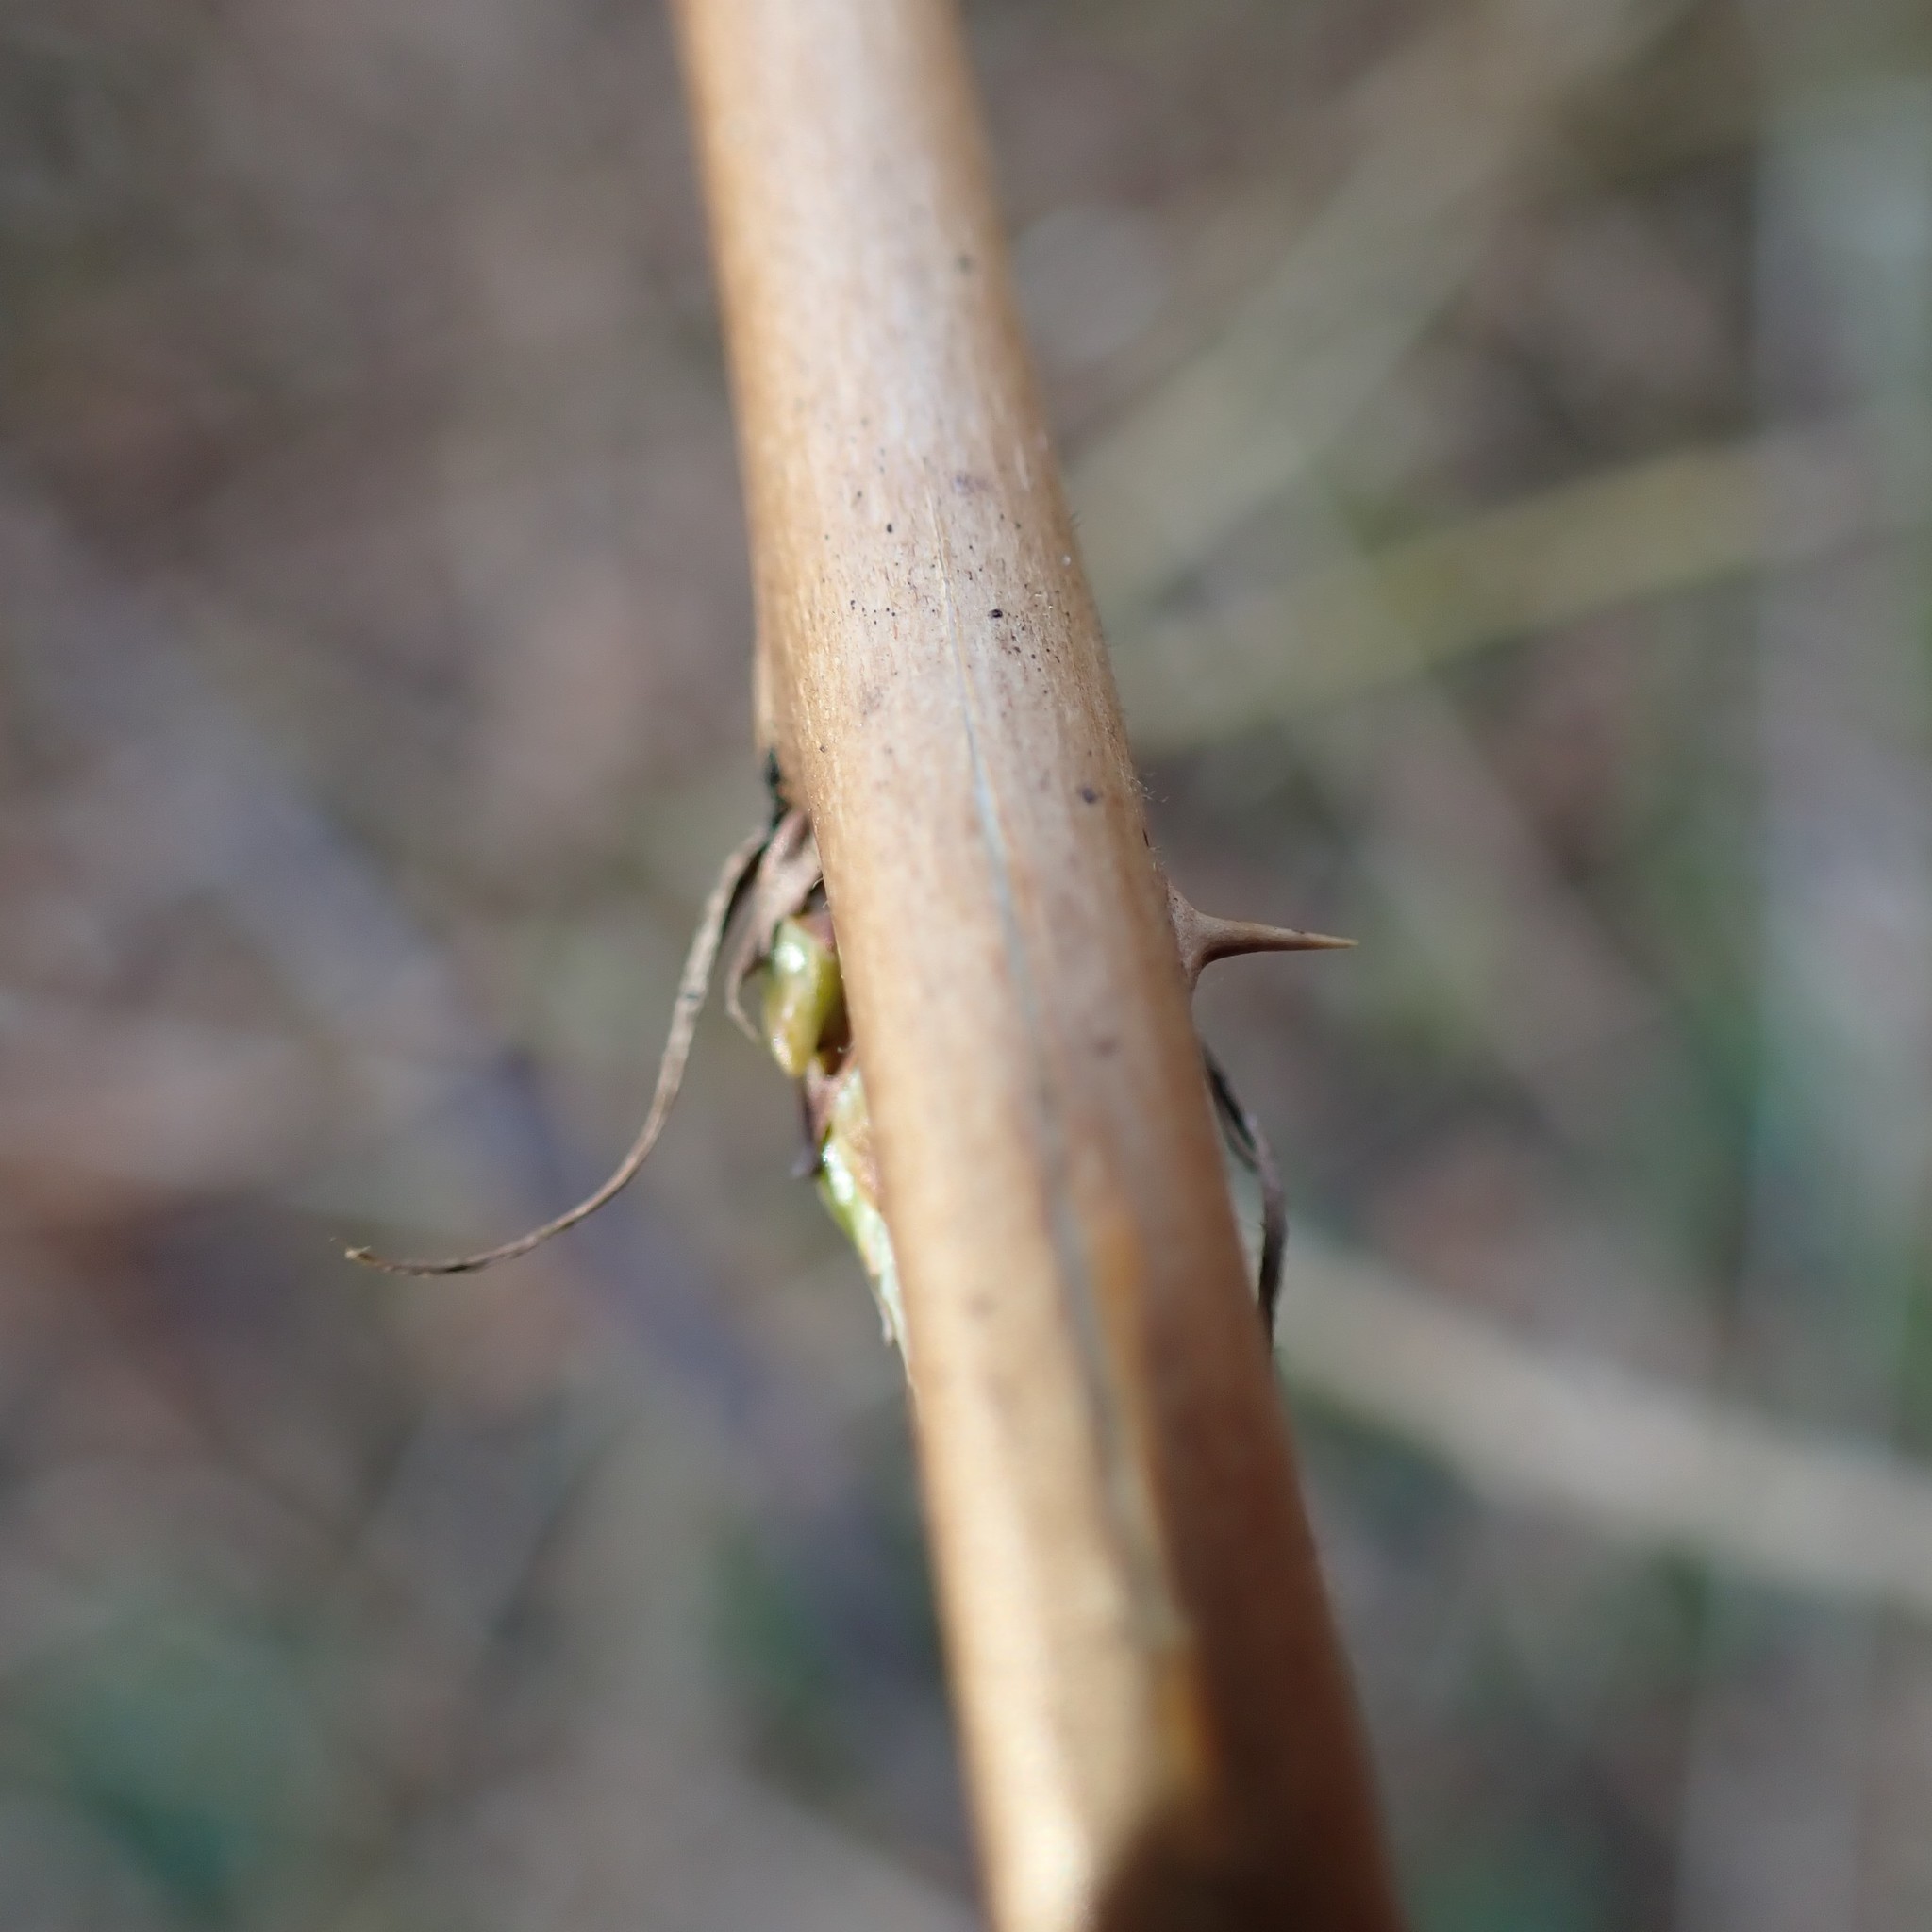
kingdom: Plantae
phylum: Tracheophyta
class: Magnoliopsida
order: Rosales
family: Rosaceae
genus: Rubus
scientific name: Rubus spectabilis
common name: Salmonberry
